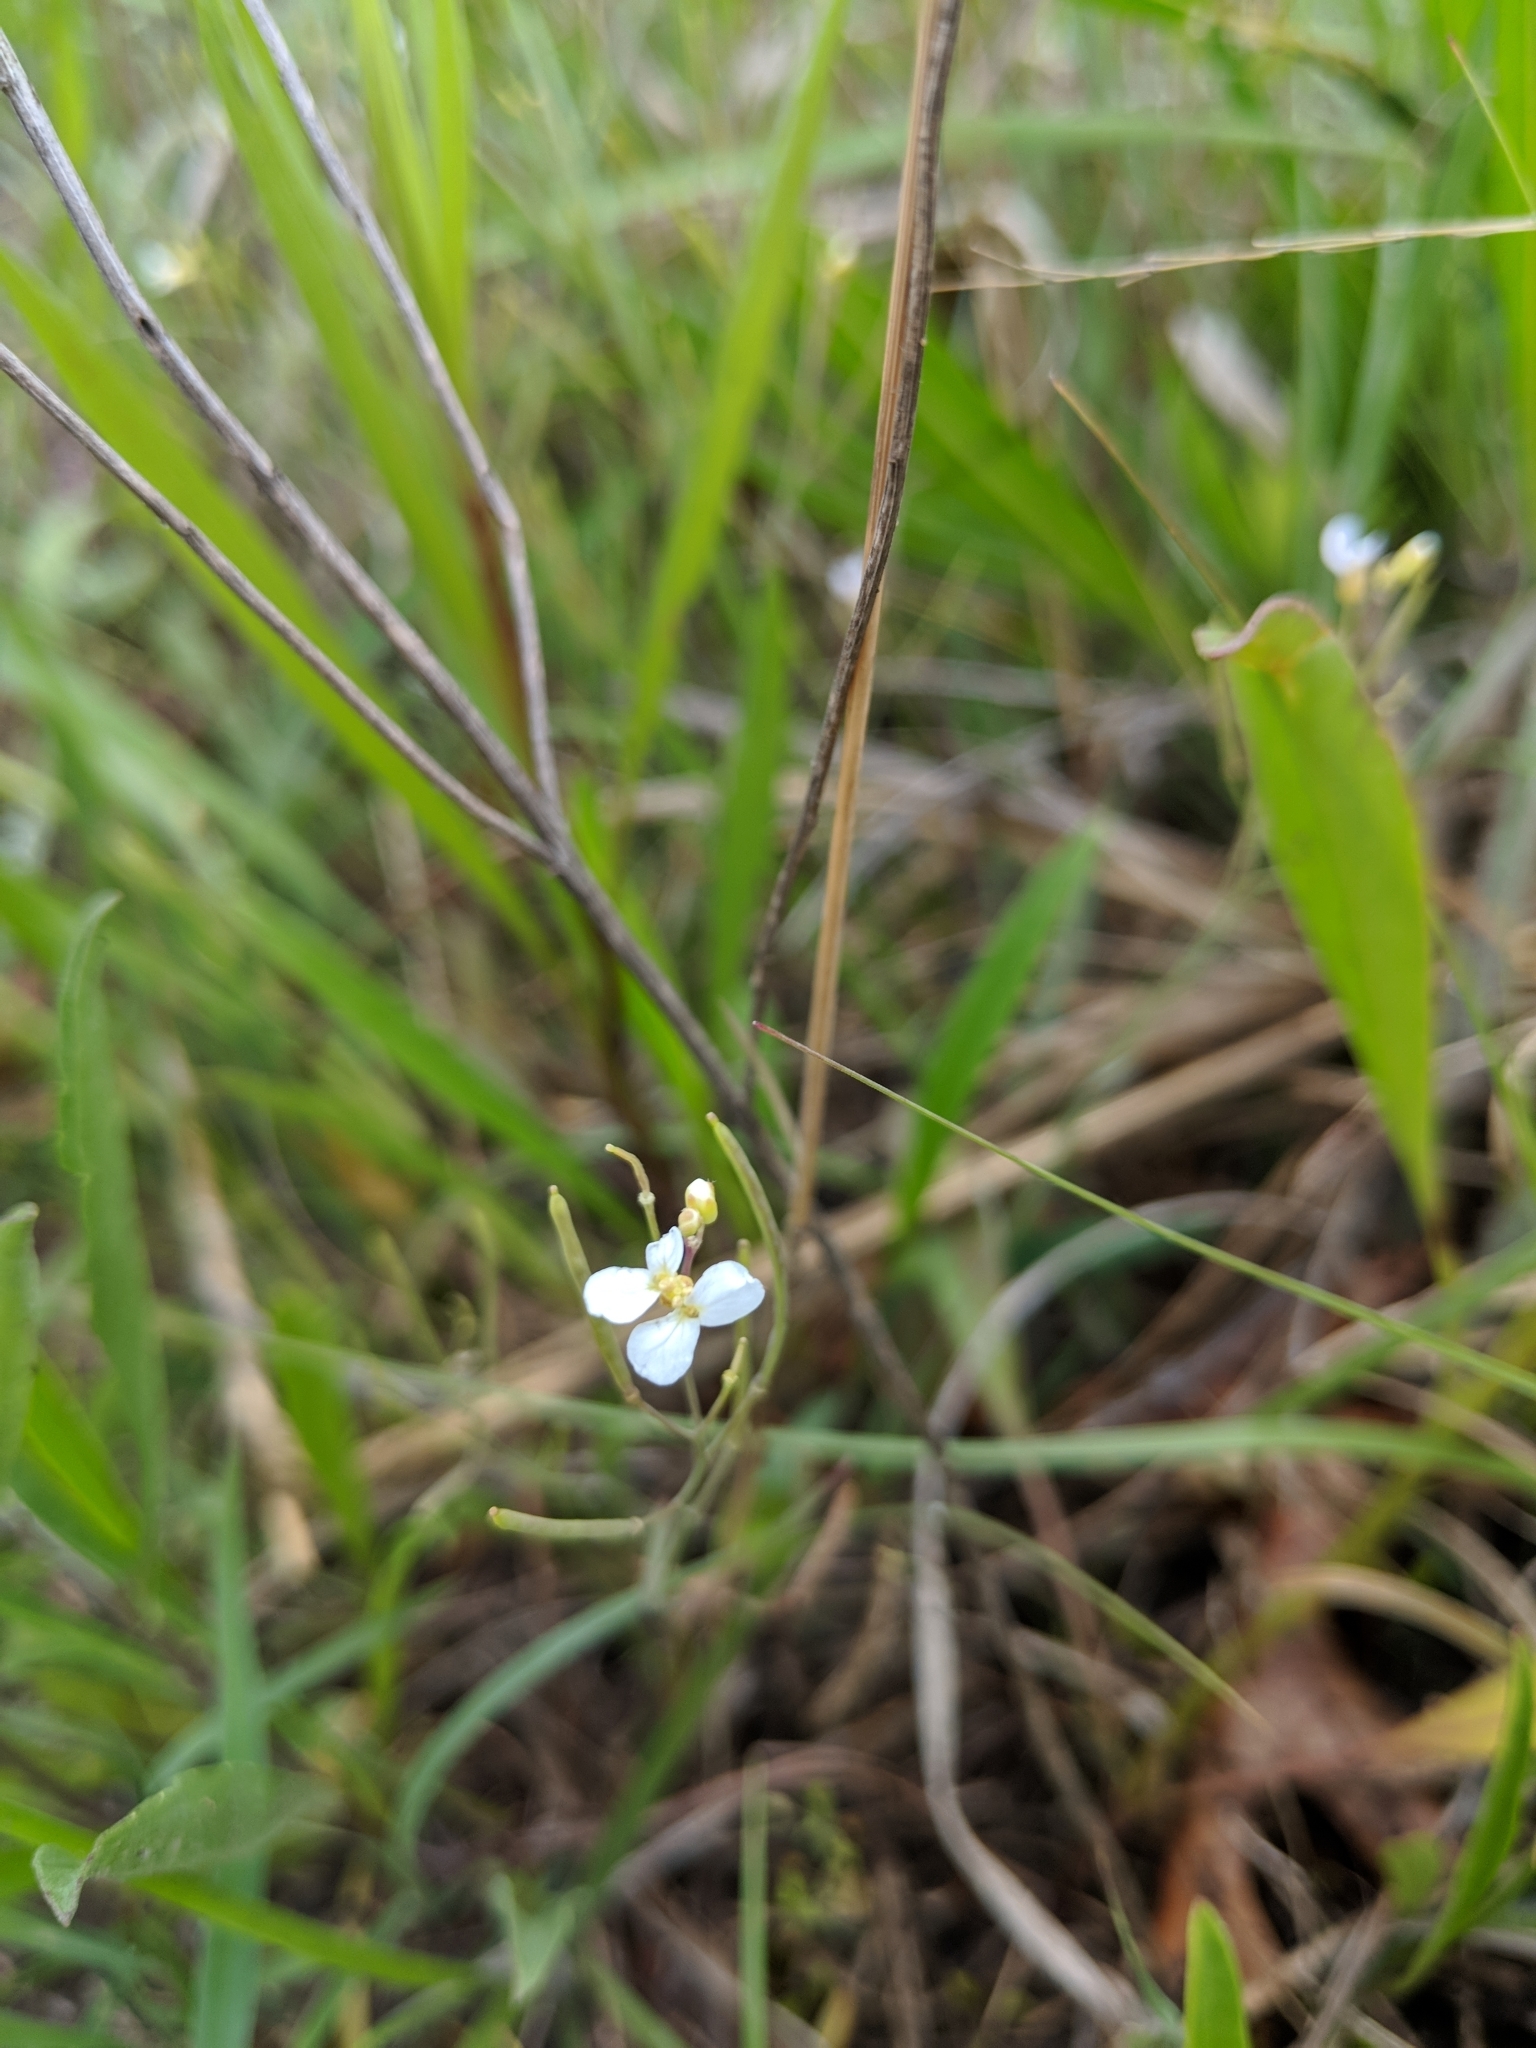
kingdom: Plantae
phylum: Tracheophyta
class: Magnoliopsida
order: Brassicales
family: Brassicaceae
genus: Arabidopsis
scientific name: Arabidopsis lyrata
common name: Lyrate rockcress
